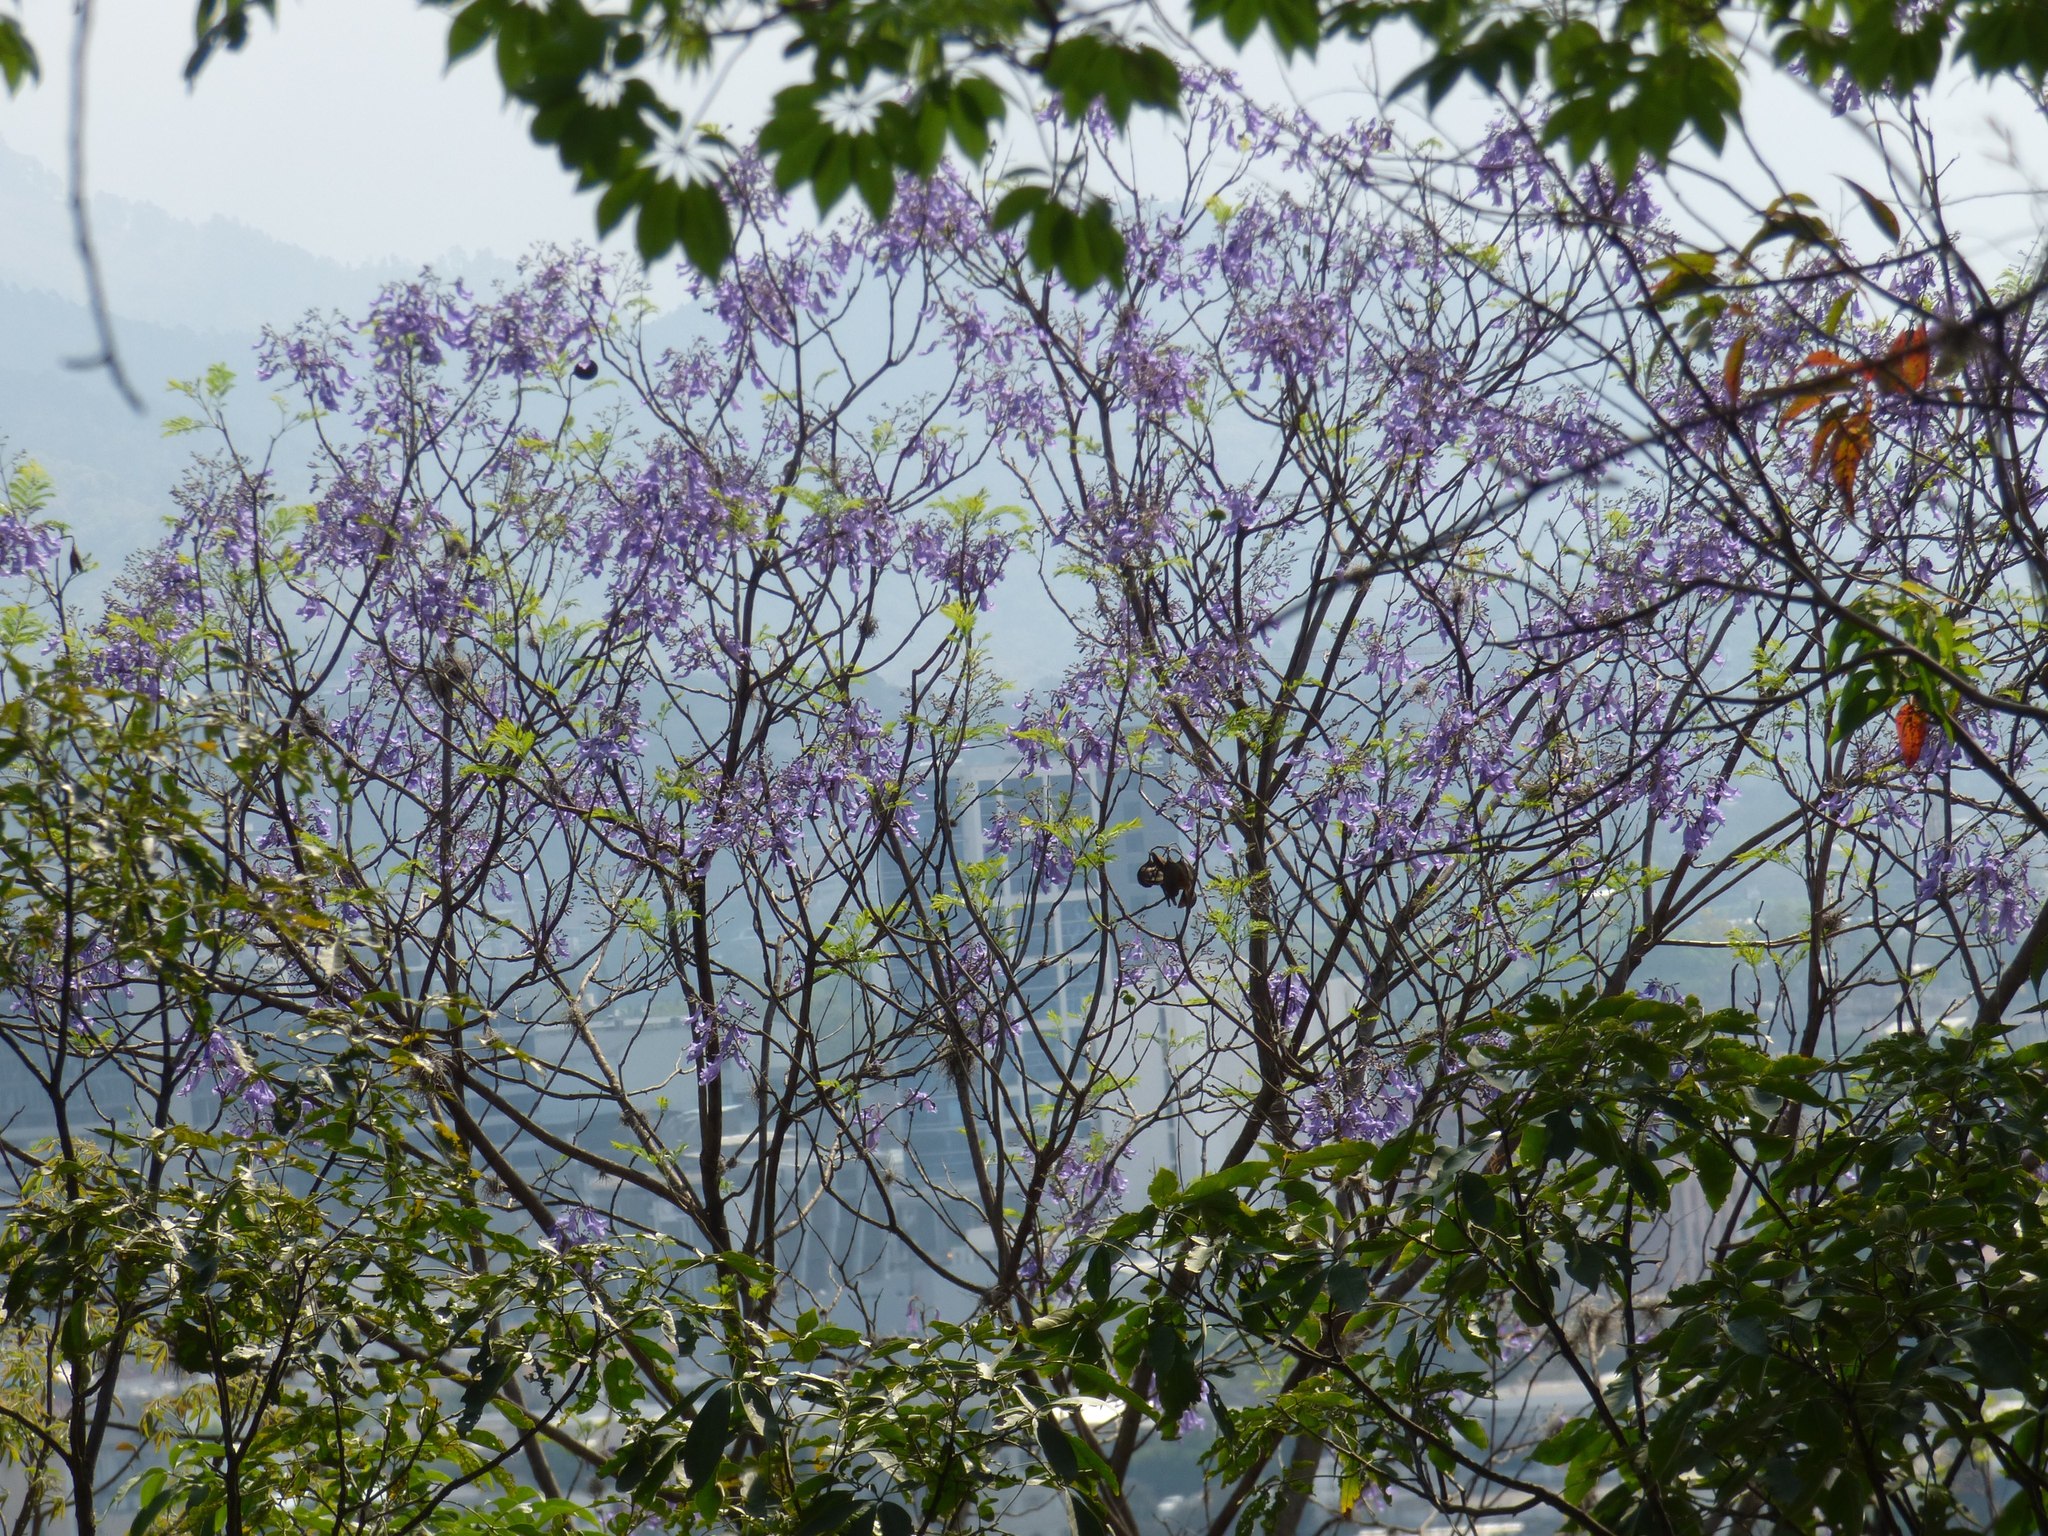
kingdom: Plantae
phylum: Tracheophyta
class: Magnoliopsida
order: Lamiales
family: Bignoniaceae
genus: Jacaranda
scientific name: Jacaranda mimosifolia
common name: Black poui
